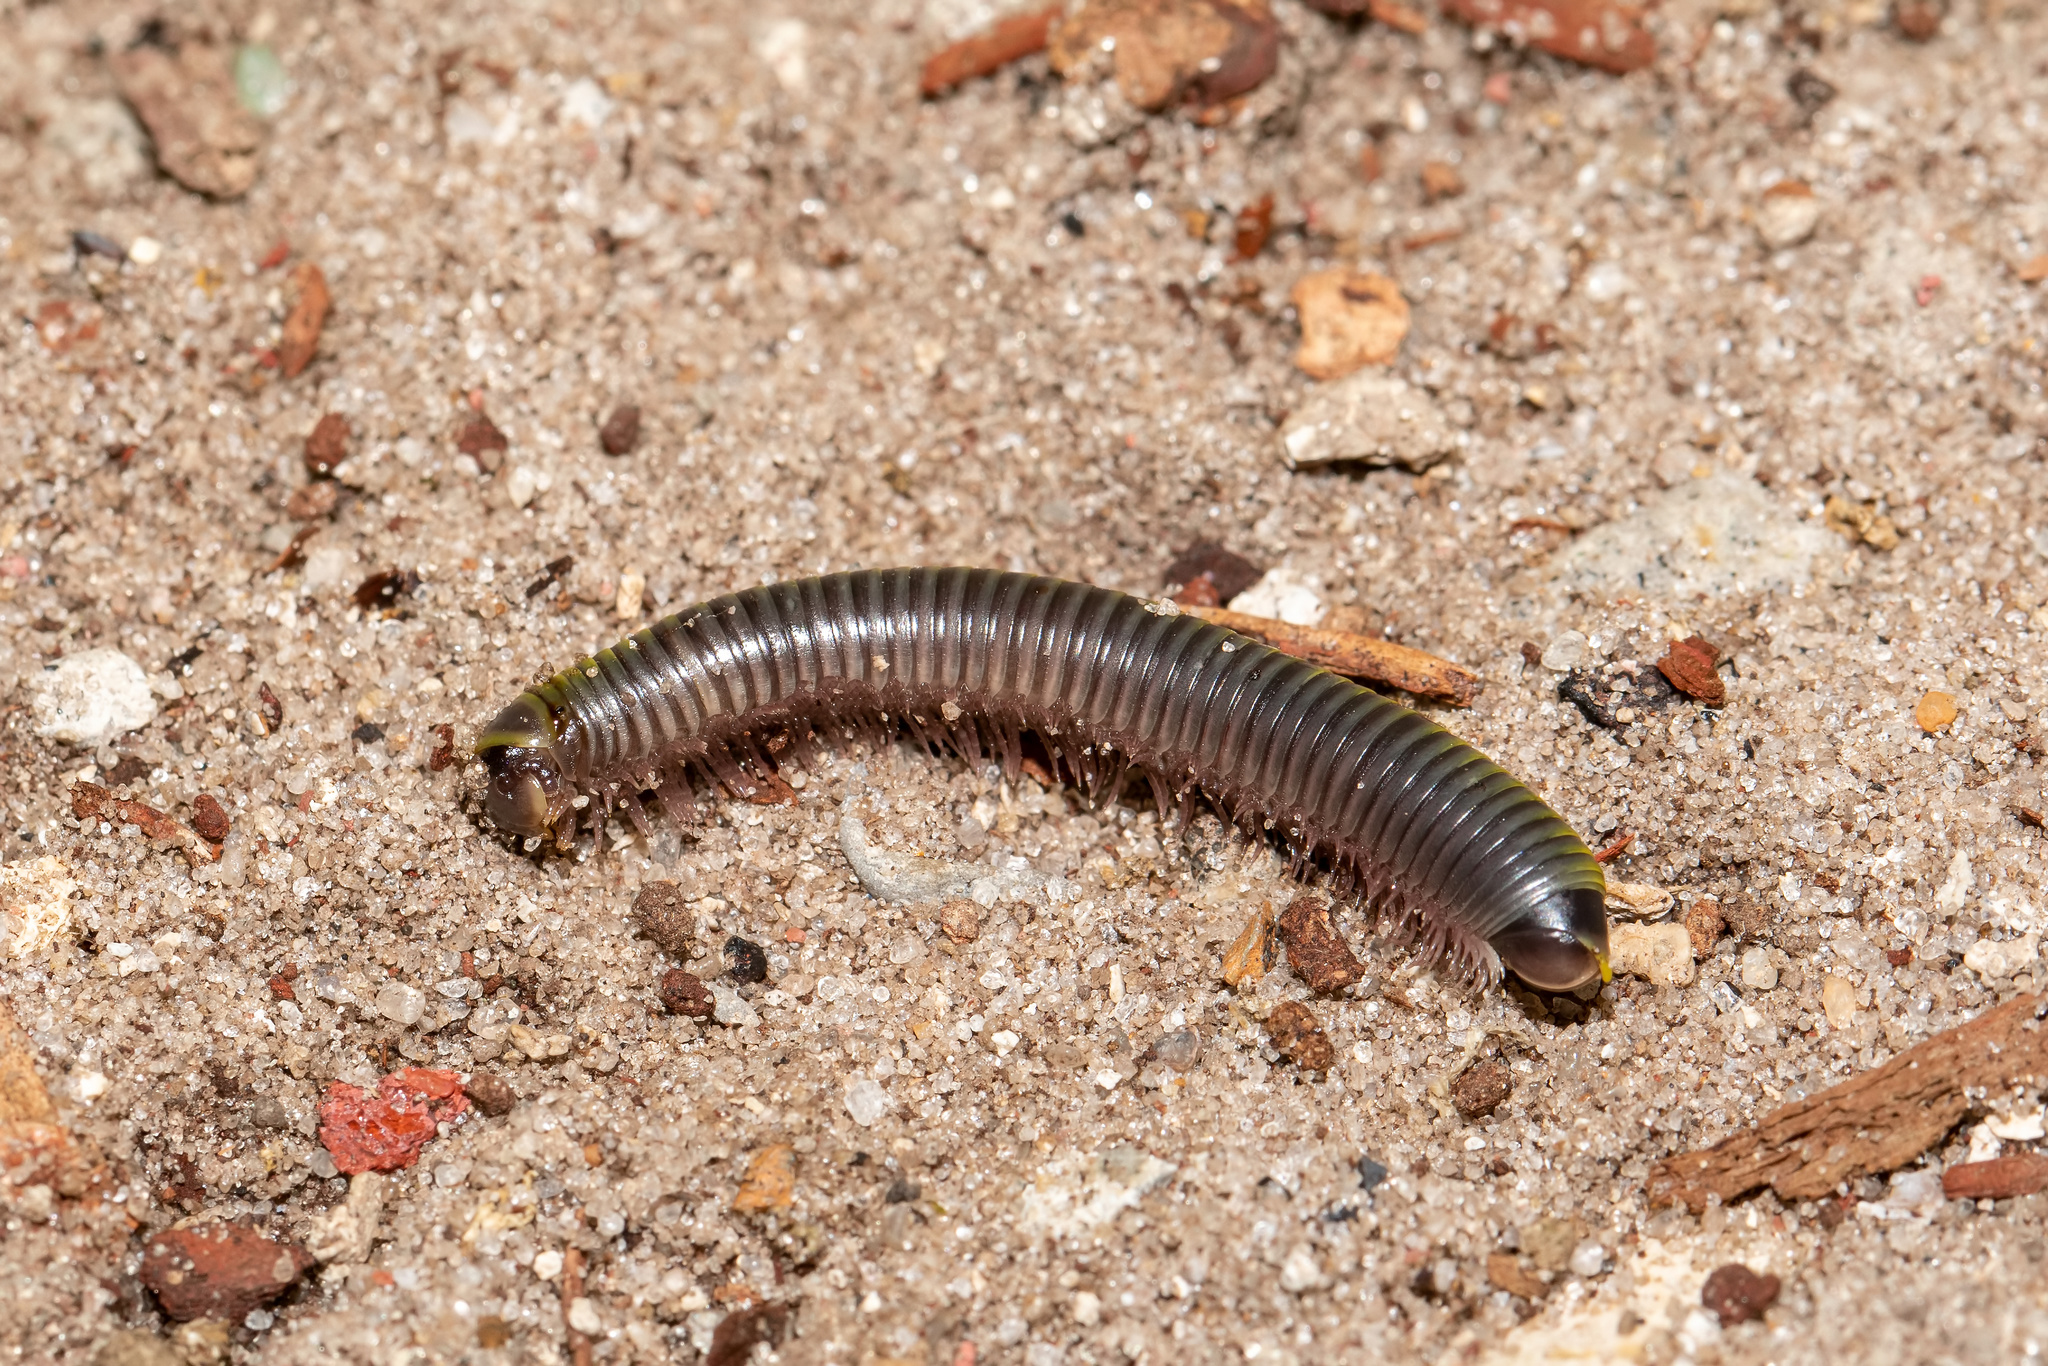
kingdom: Animalia
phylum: Arthropoda
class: Diplopoda
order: Spirobolida
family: Rhinocricidae
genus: Anadenobolus
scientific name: Anadenobolus monilicornis
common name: Caribbean millipede
